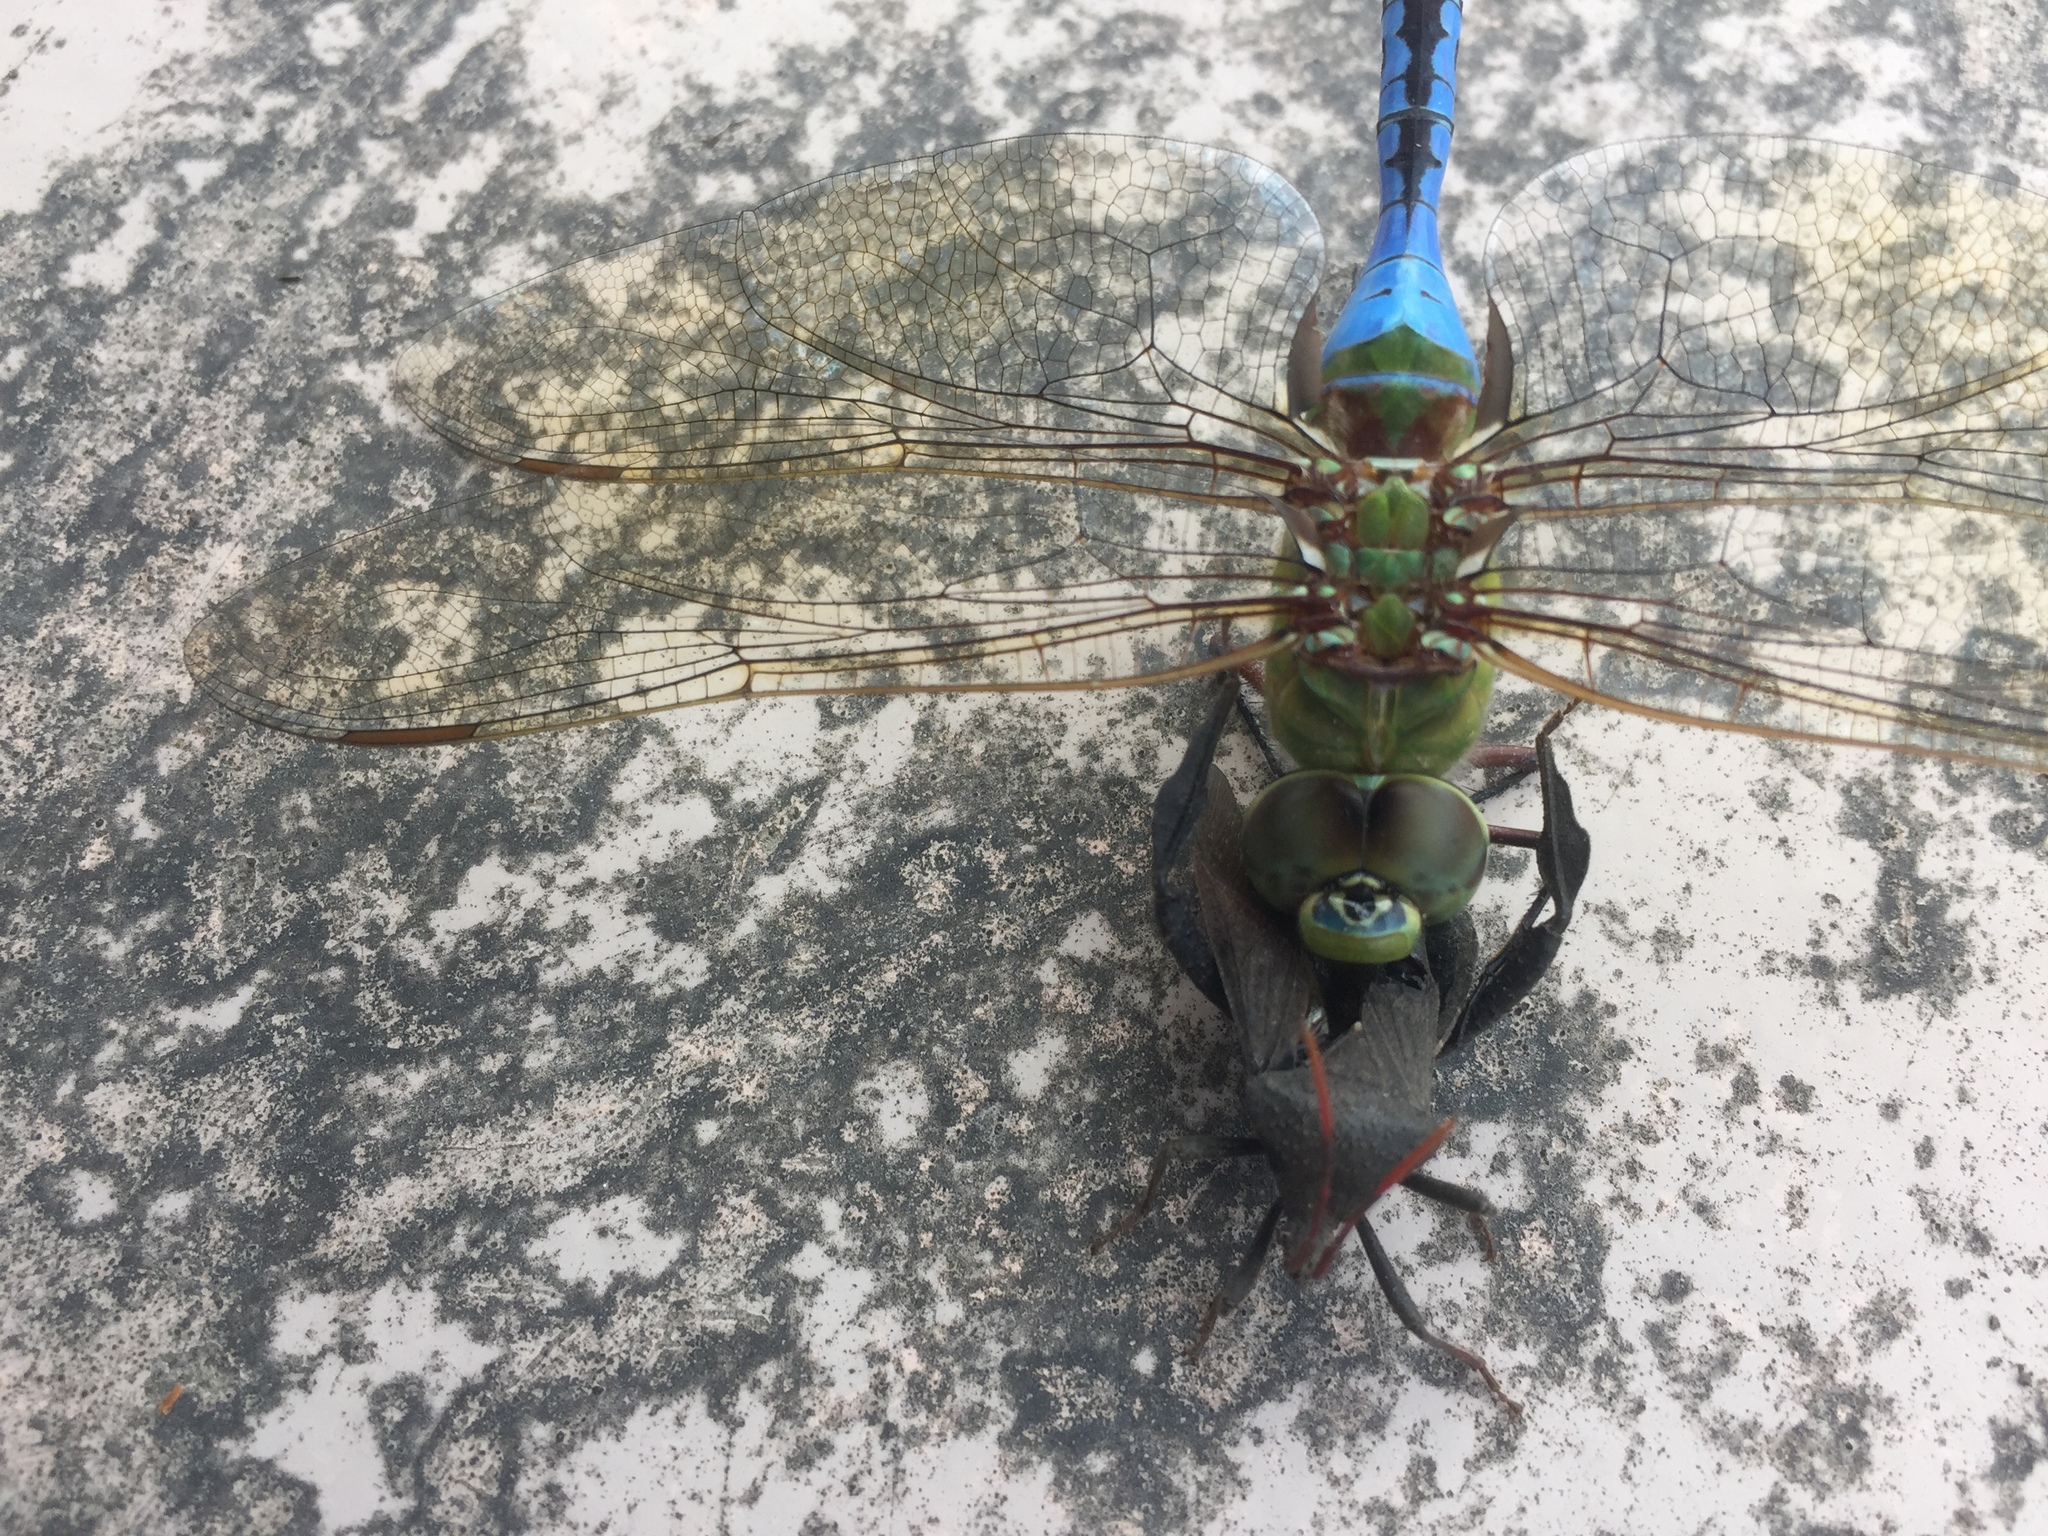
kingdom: Animalia
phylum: Arthropoda
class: Insecta
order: Odonata
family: Aeshnidae
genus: Anax
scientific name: Anax junius
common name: Common green darner
